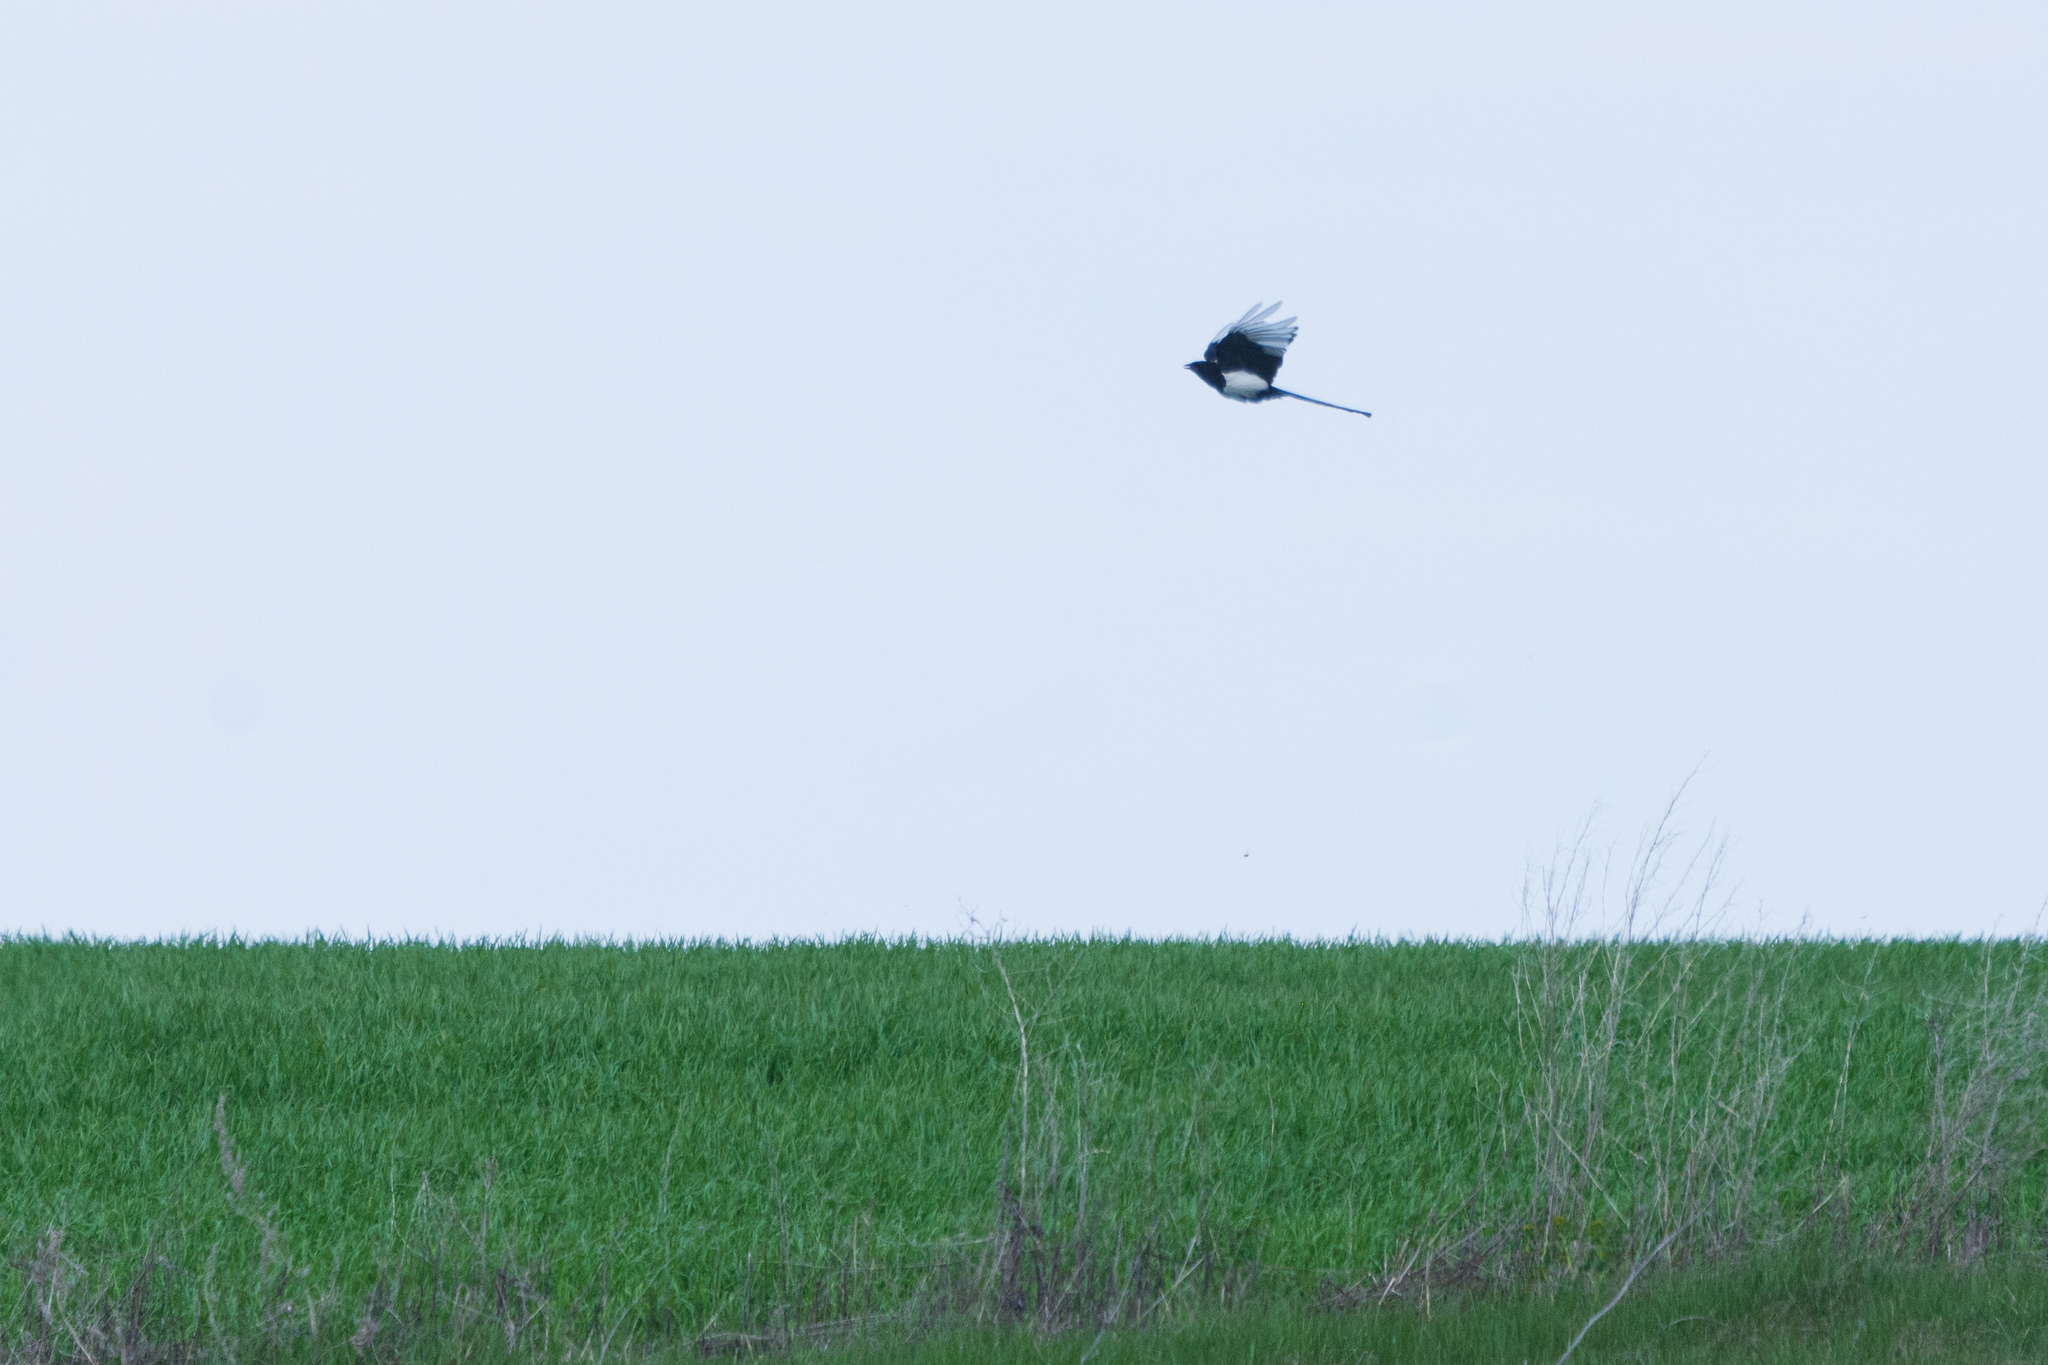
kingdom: Animalia
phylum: Chordata
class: Aves
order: Passeriformes
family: Corvidae
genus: Pica
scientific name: Pica pica
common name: Eurasian magpie
